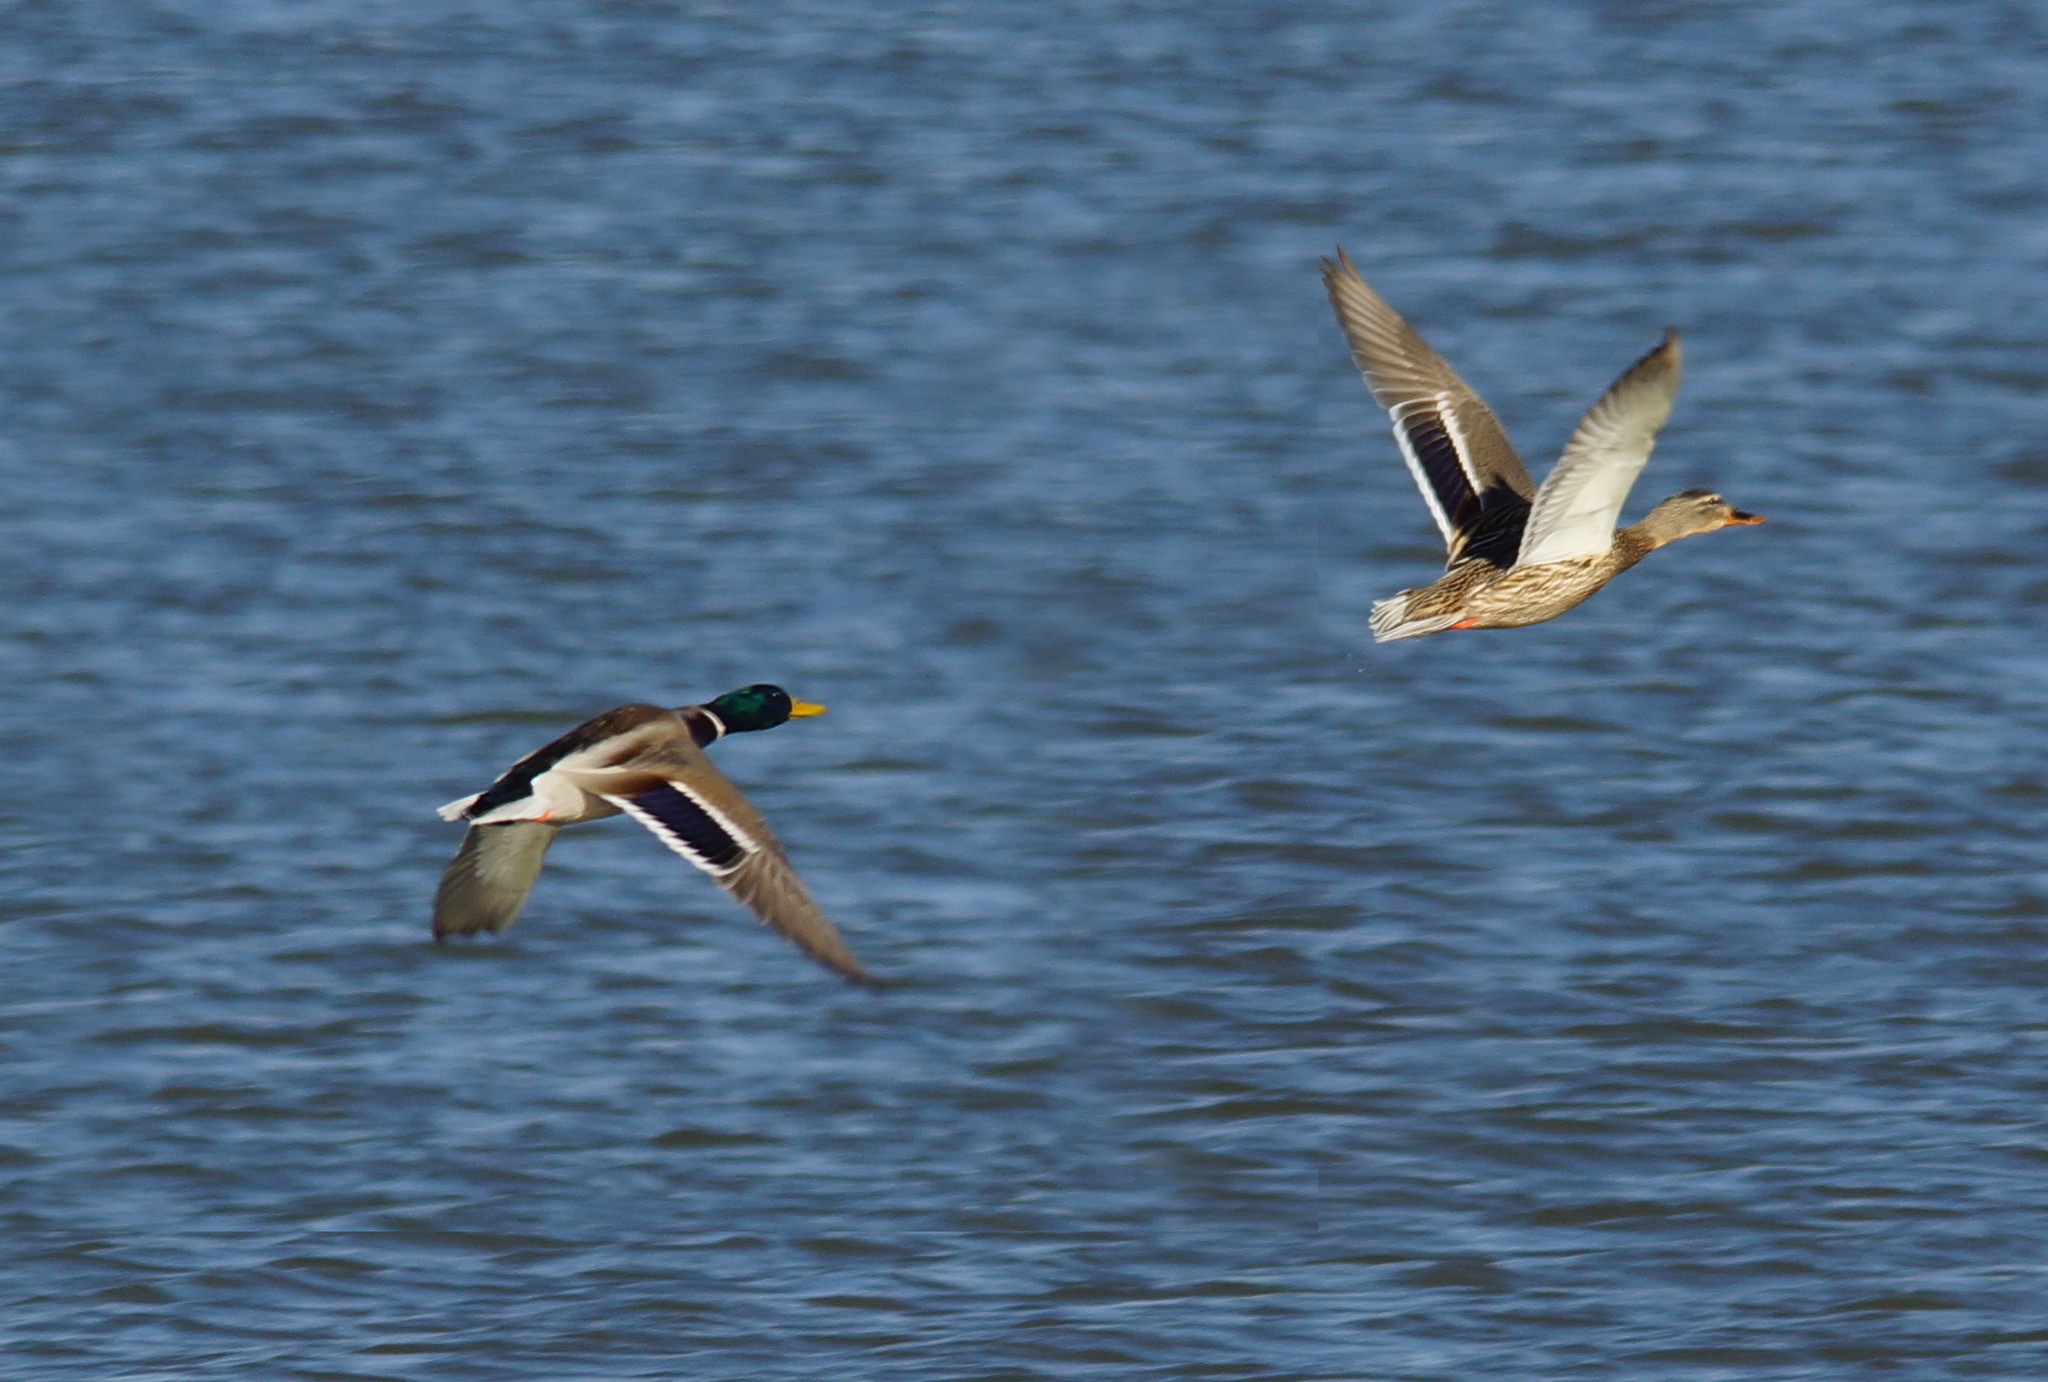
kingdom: Animalia
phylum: Chordata
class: Aves
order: Anseriformes
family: Anatidae
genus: Anas
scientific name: Anas platyrhynchos
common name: Mallard
